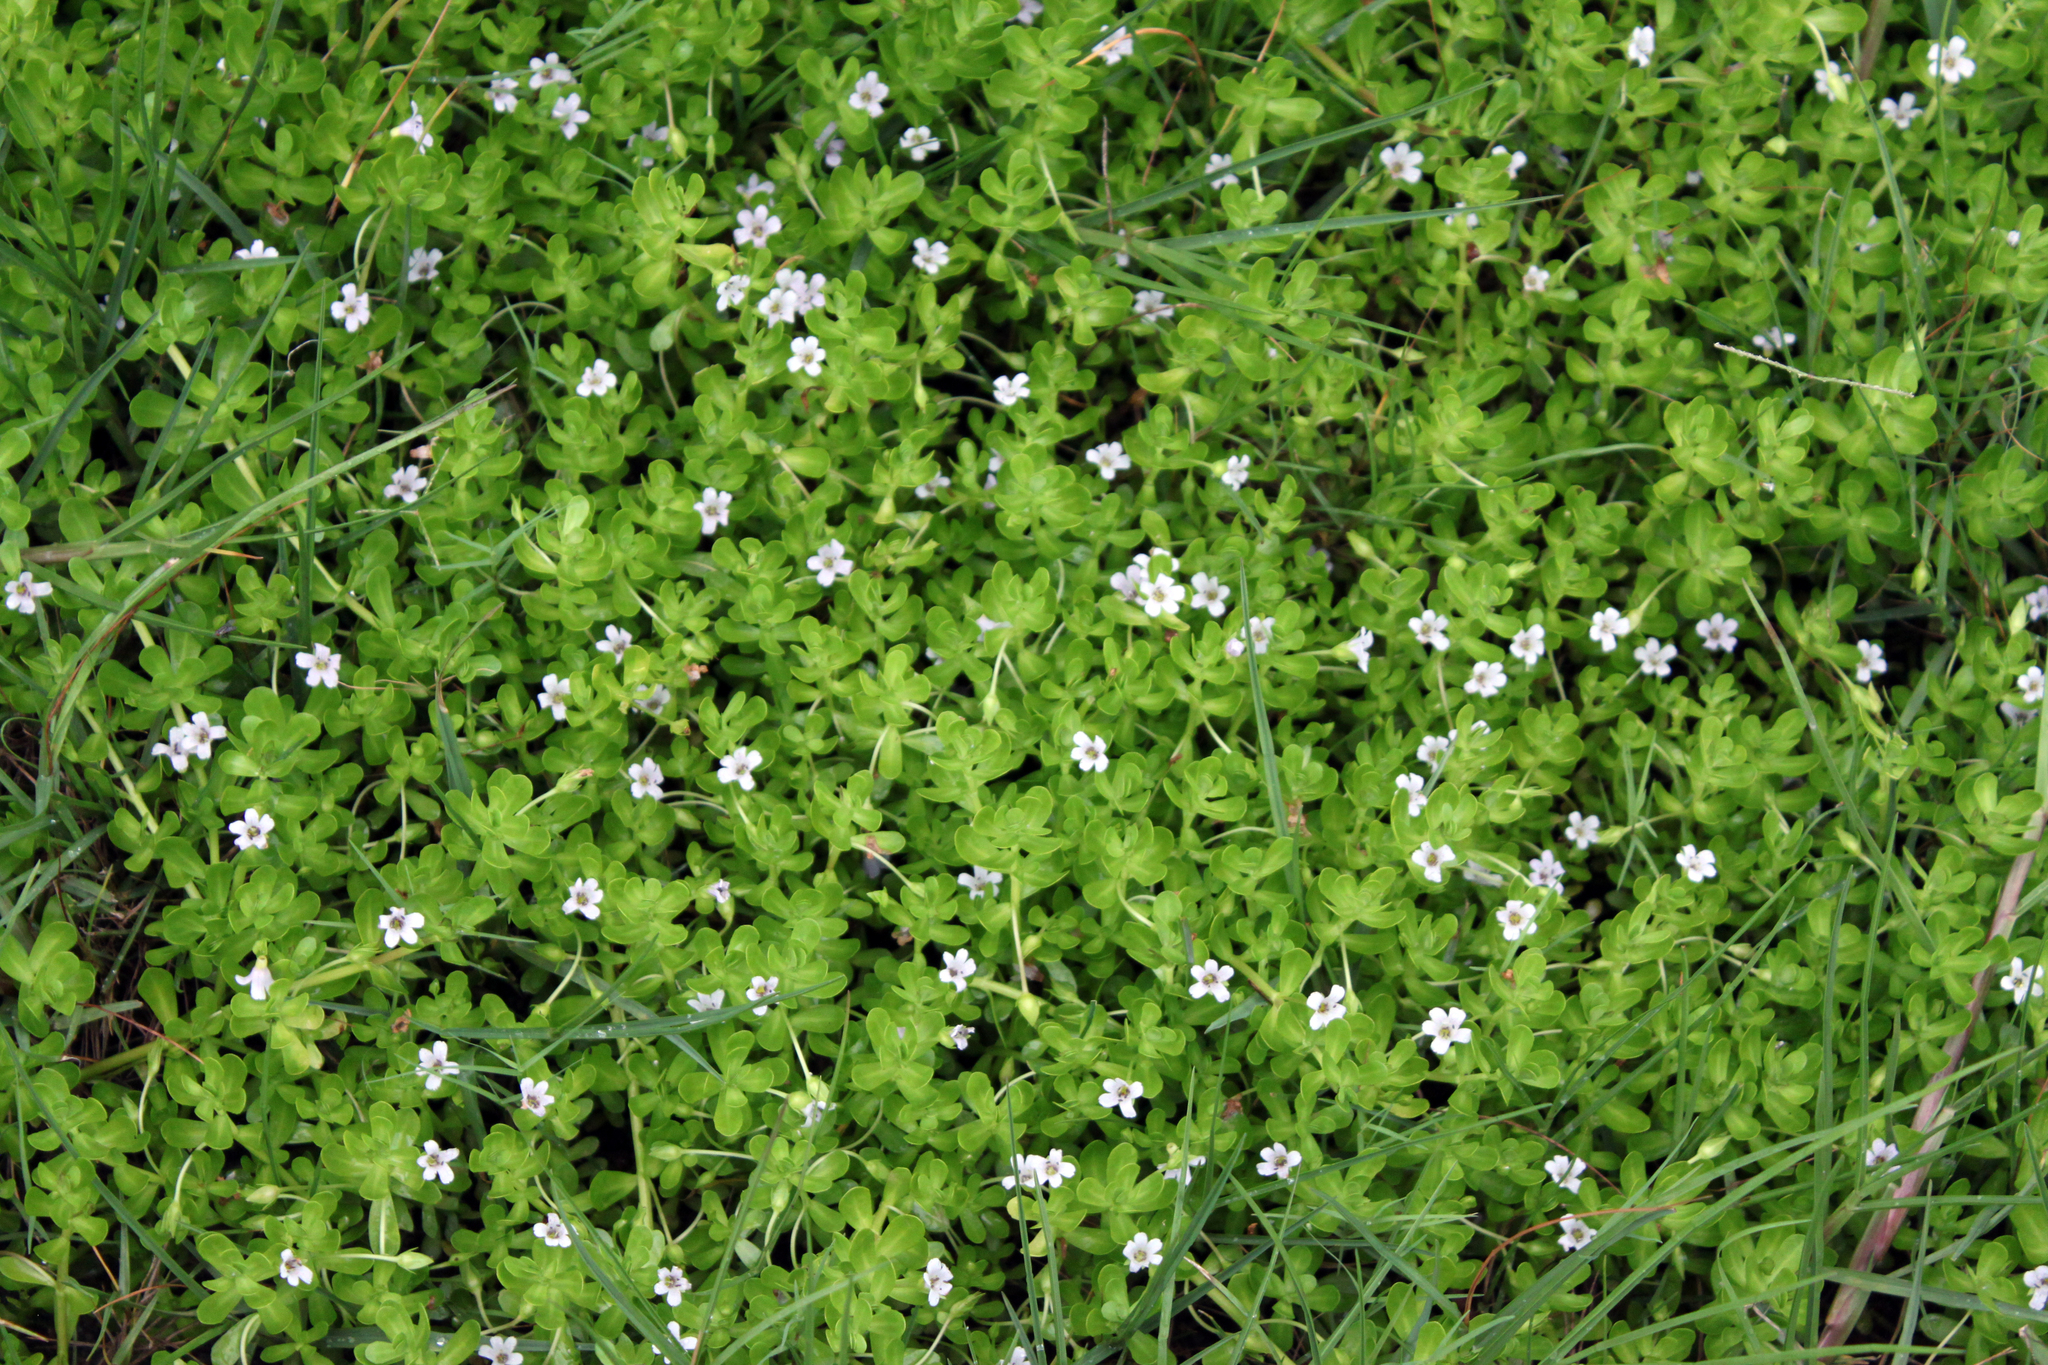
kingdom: Plantae
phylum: Tracheophyta
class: Magnoliopsida
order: Lamiales
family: Plantaginaceae
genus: Bacopa
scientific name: Bacopa monnieri
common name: Indian-pennywort
